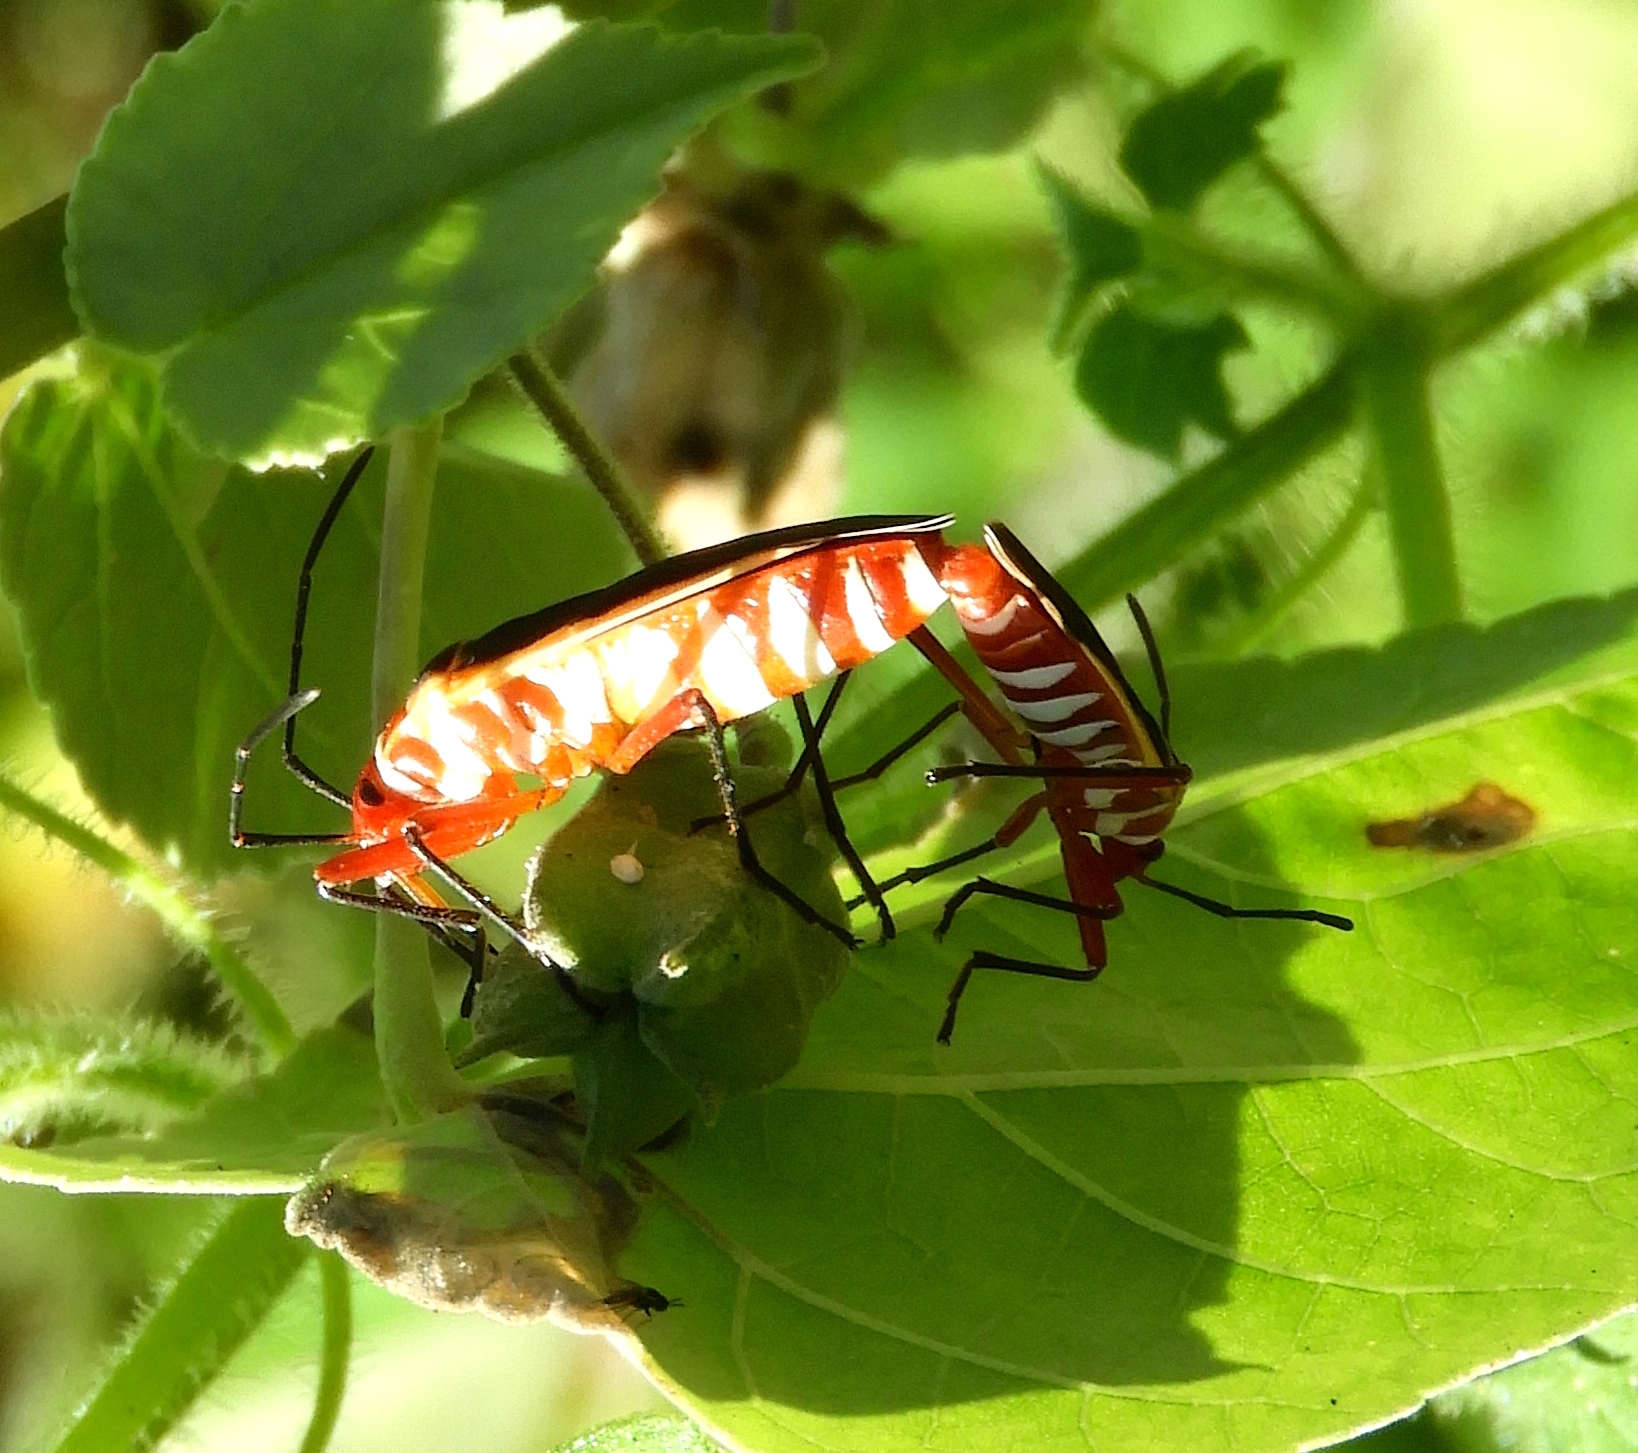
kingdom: Animalia
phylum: Arthropoda
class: Insecta
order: Hemiptera
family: Pyrrhocoridae
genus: Dysdercus
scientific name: Dysdercus
